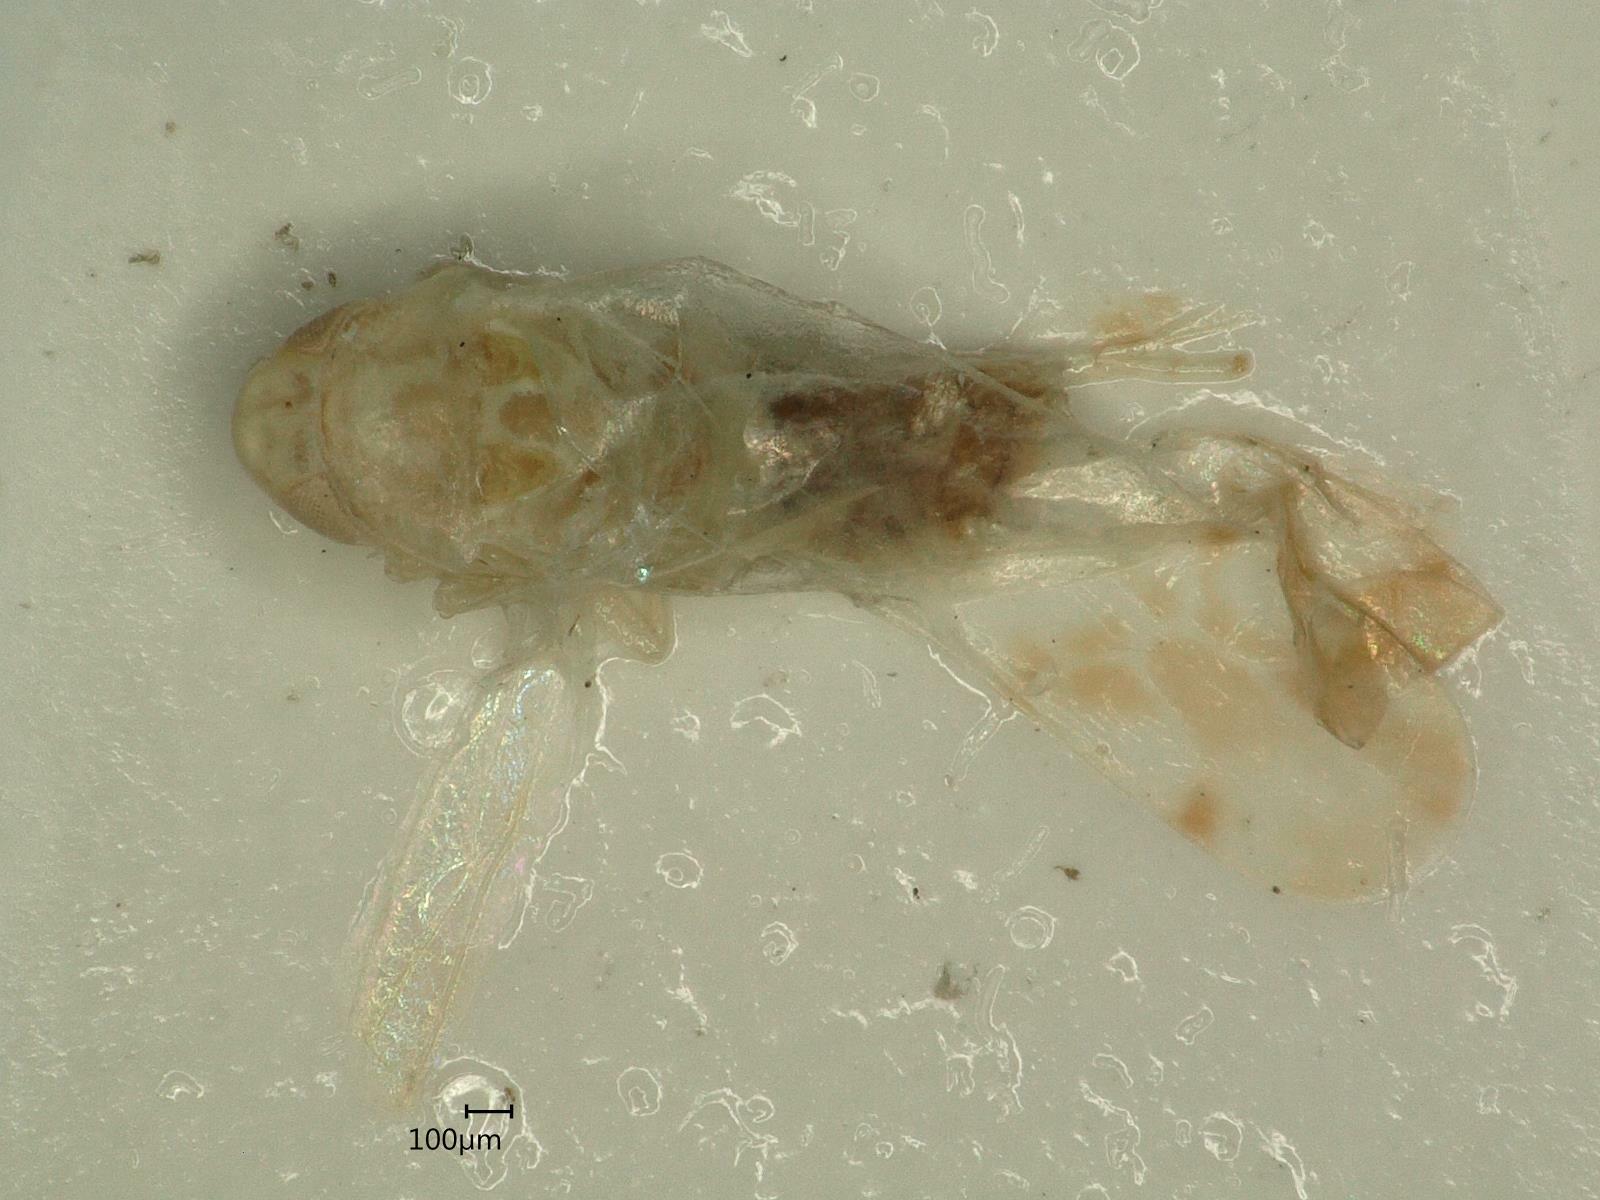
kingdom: Animalia
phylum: Arthropoda
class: Insecta
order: Hemiptera
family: Cicadellidae
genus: Ribautiana
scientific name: Ribautiana tenerrima
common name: Bramble leafhopper
